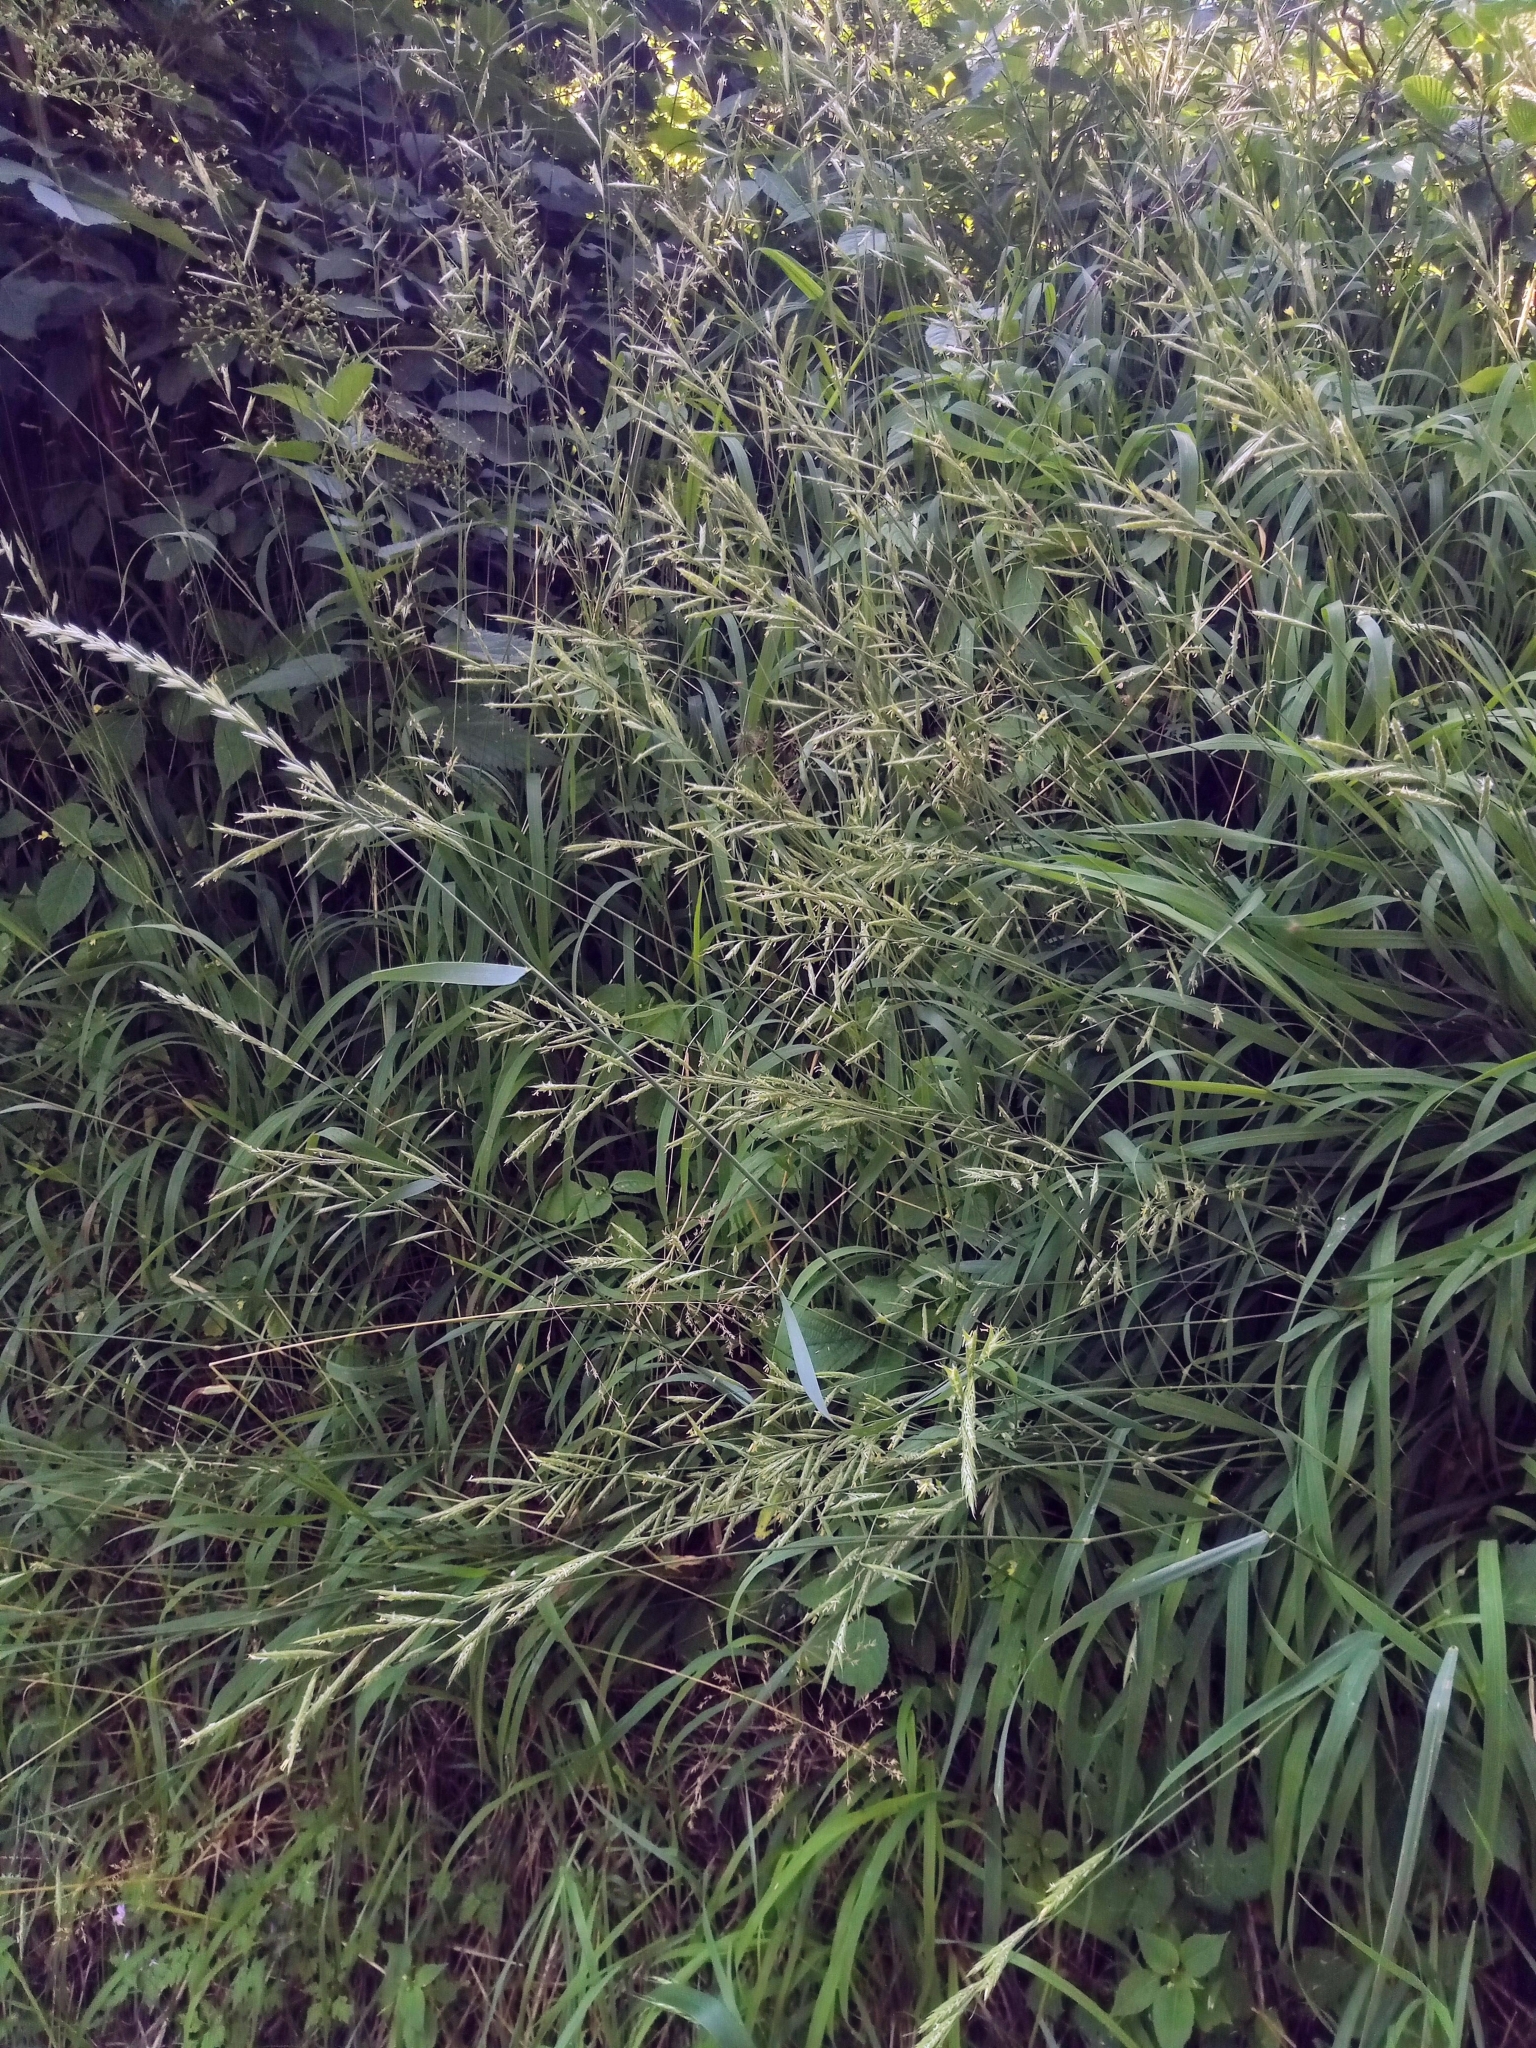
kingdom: Plantae
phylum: Tracheophyta
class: Liliopsida
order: Poales
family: Poaceae
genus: Brachypodium
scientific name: Brachypodium pinnatum
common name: Tor grass
